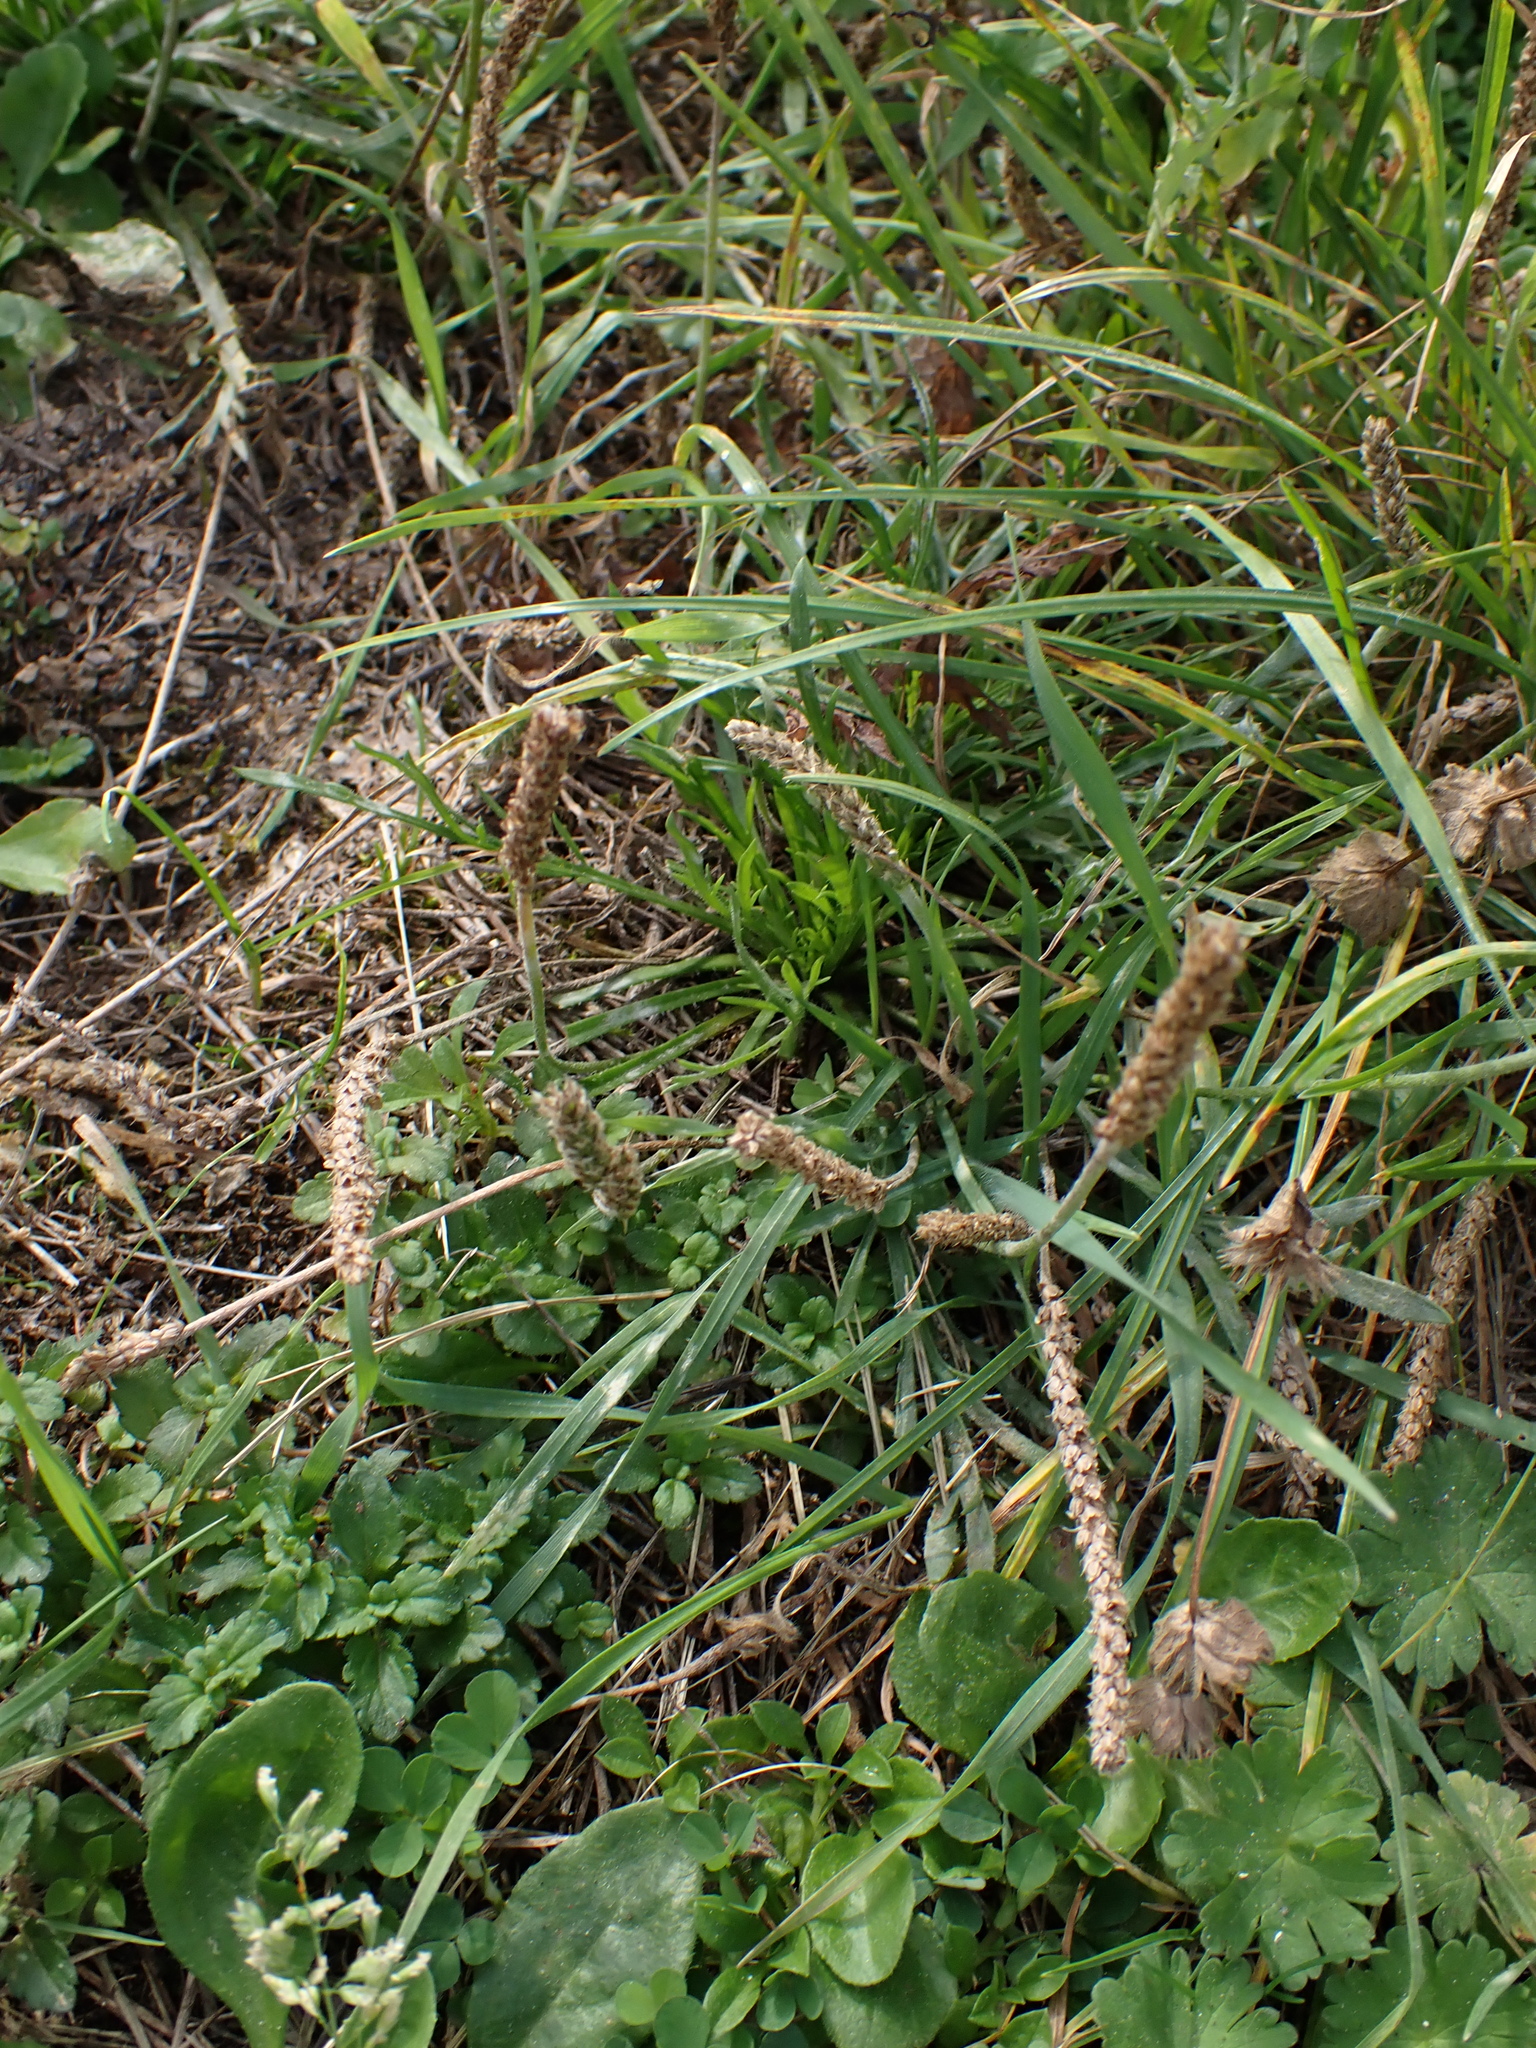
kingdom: Plantae
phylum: Tracheophyta
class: Magnoliopsida
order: Lamiales
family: Plantaginaceae
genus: Plantago
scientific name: Plantago coronopus
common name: Buck's-horn plantain
